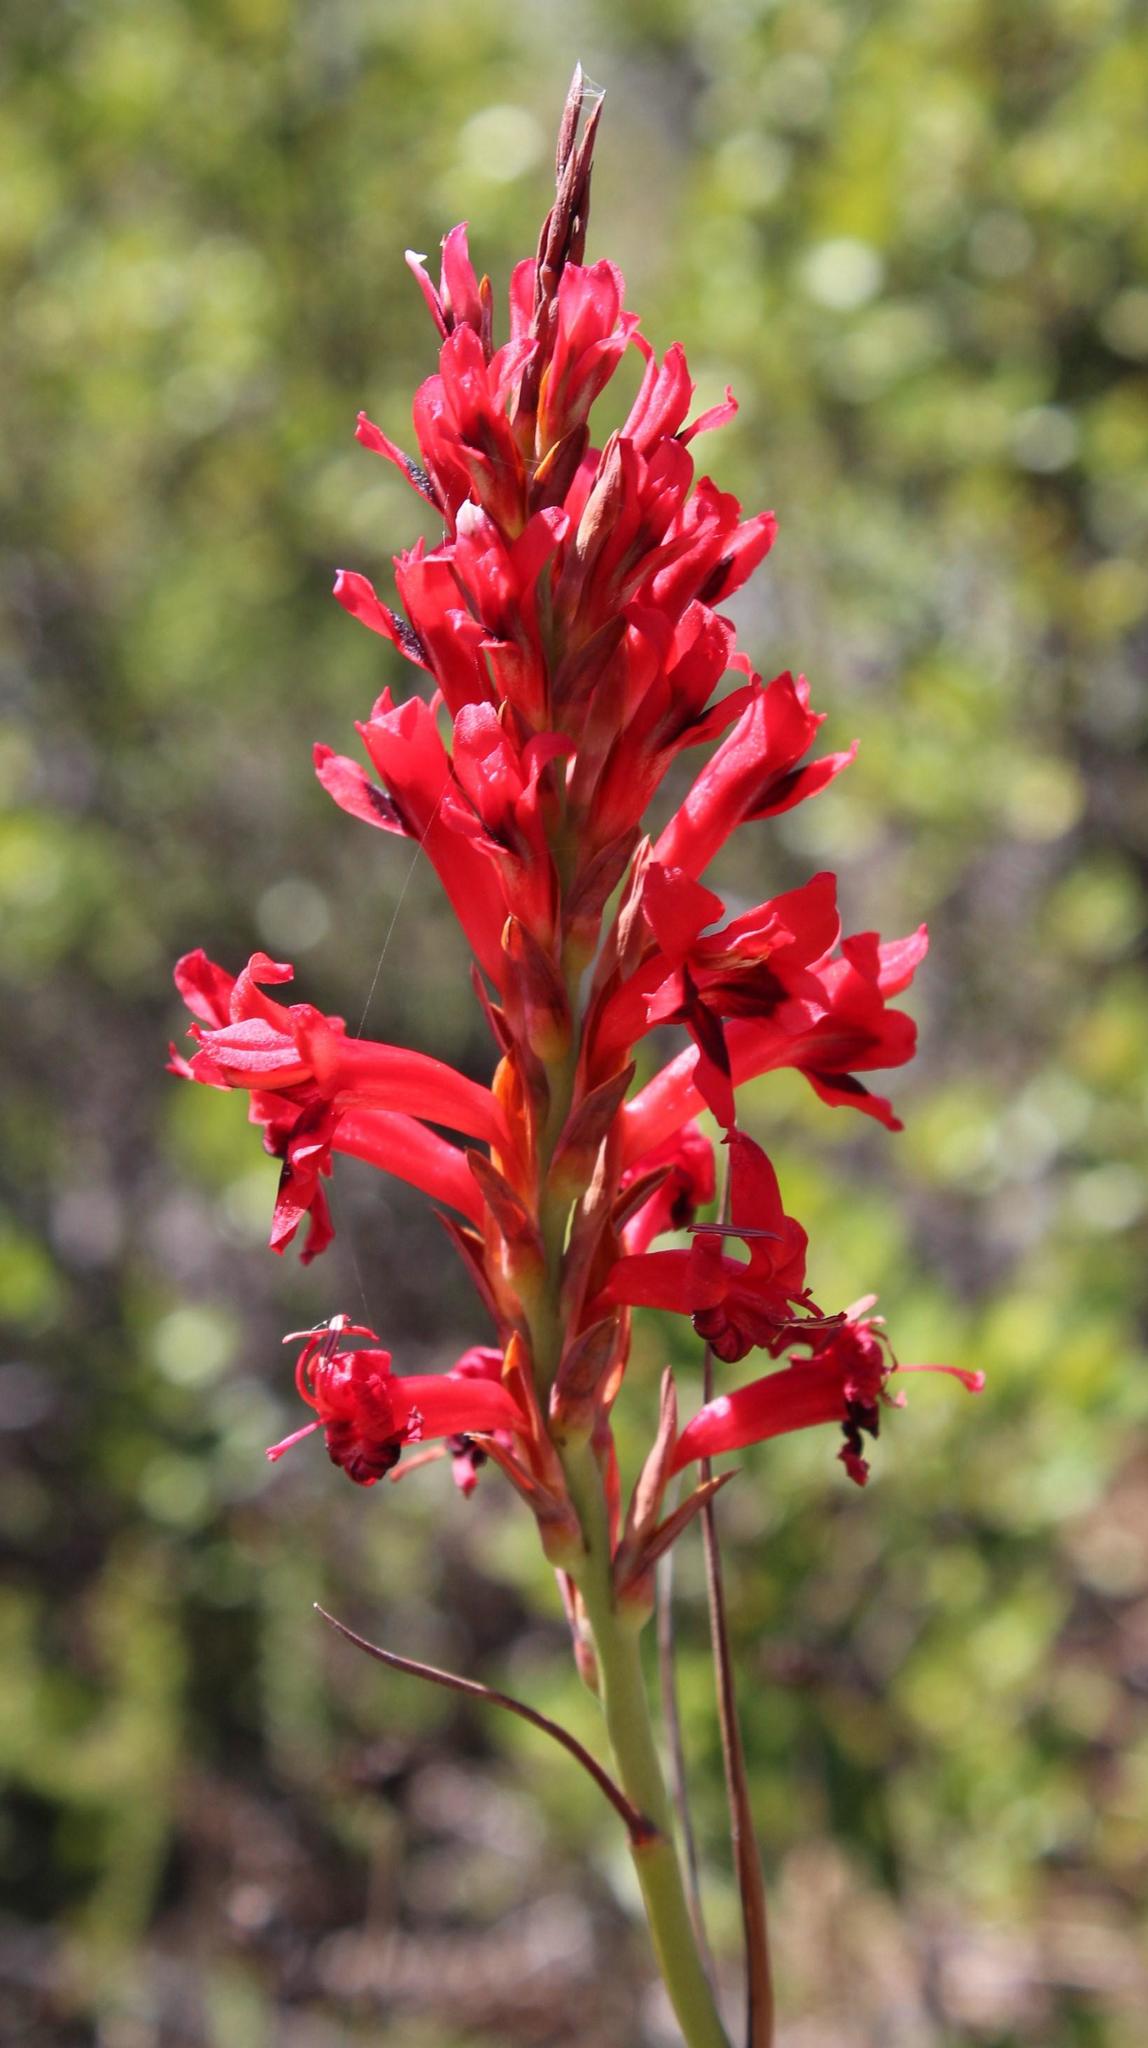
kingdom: Plantae
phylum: Tracheophyta
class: Liliopsida
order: Asparagales
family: Iridaceae
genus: Tritoniopsis
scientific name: Tritoniopsis triticea
